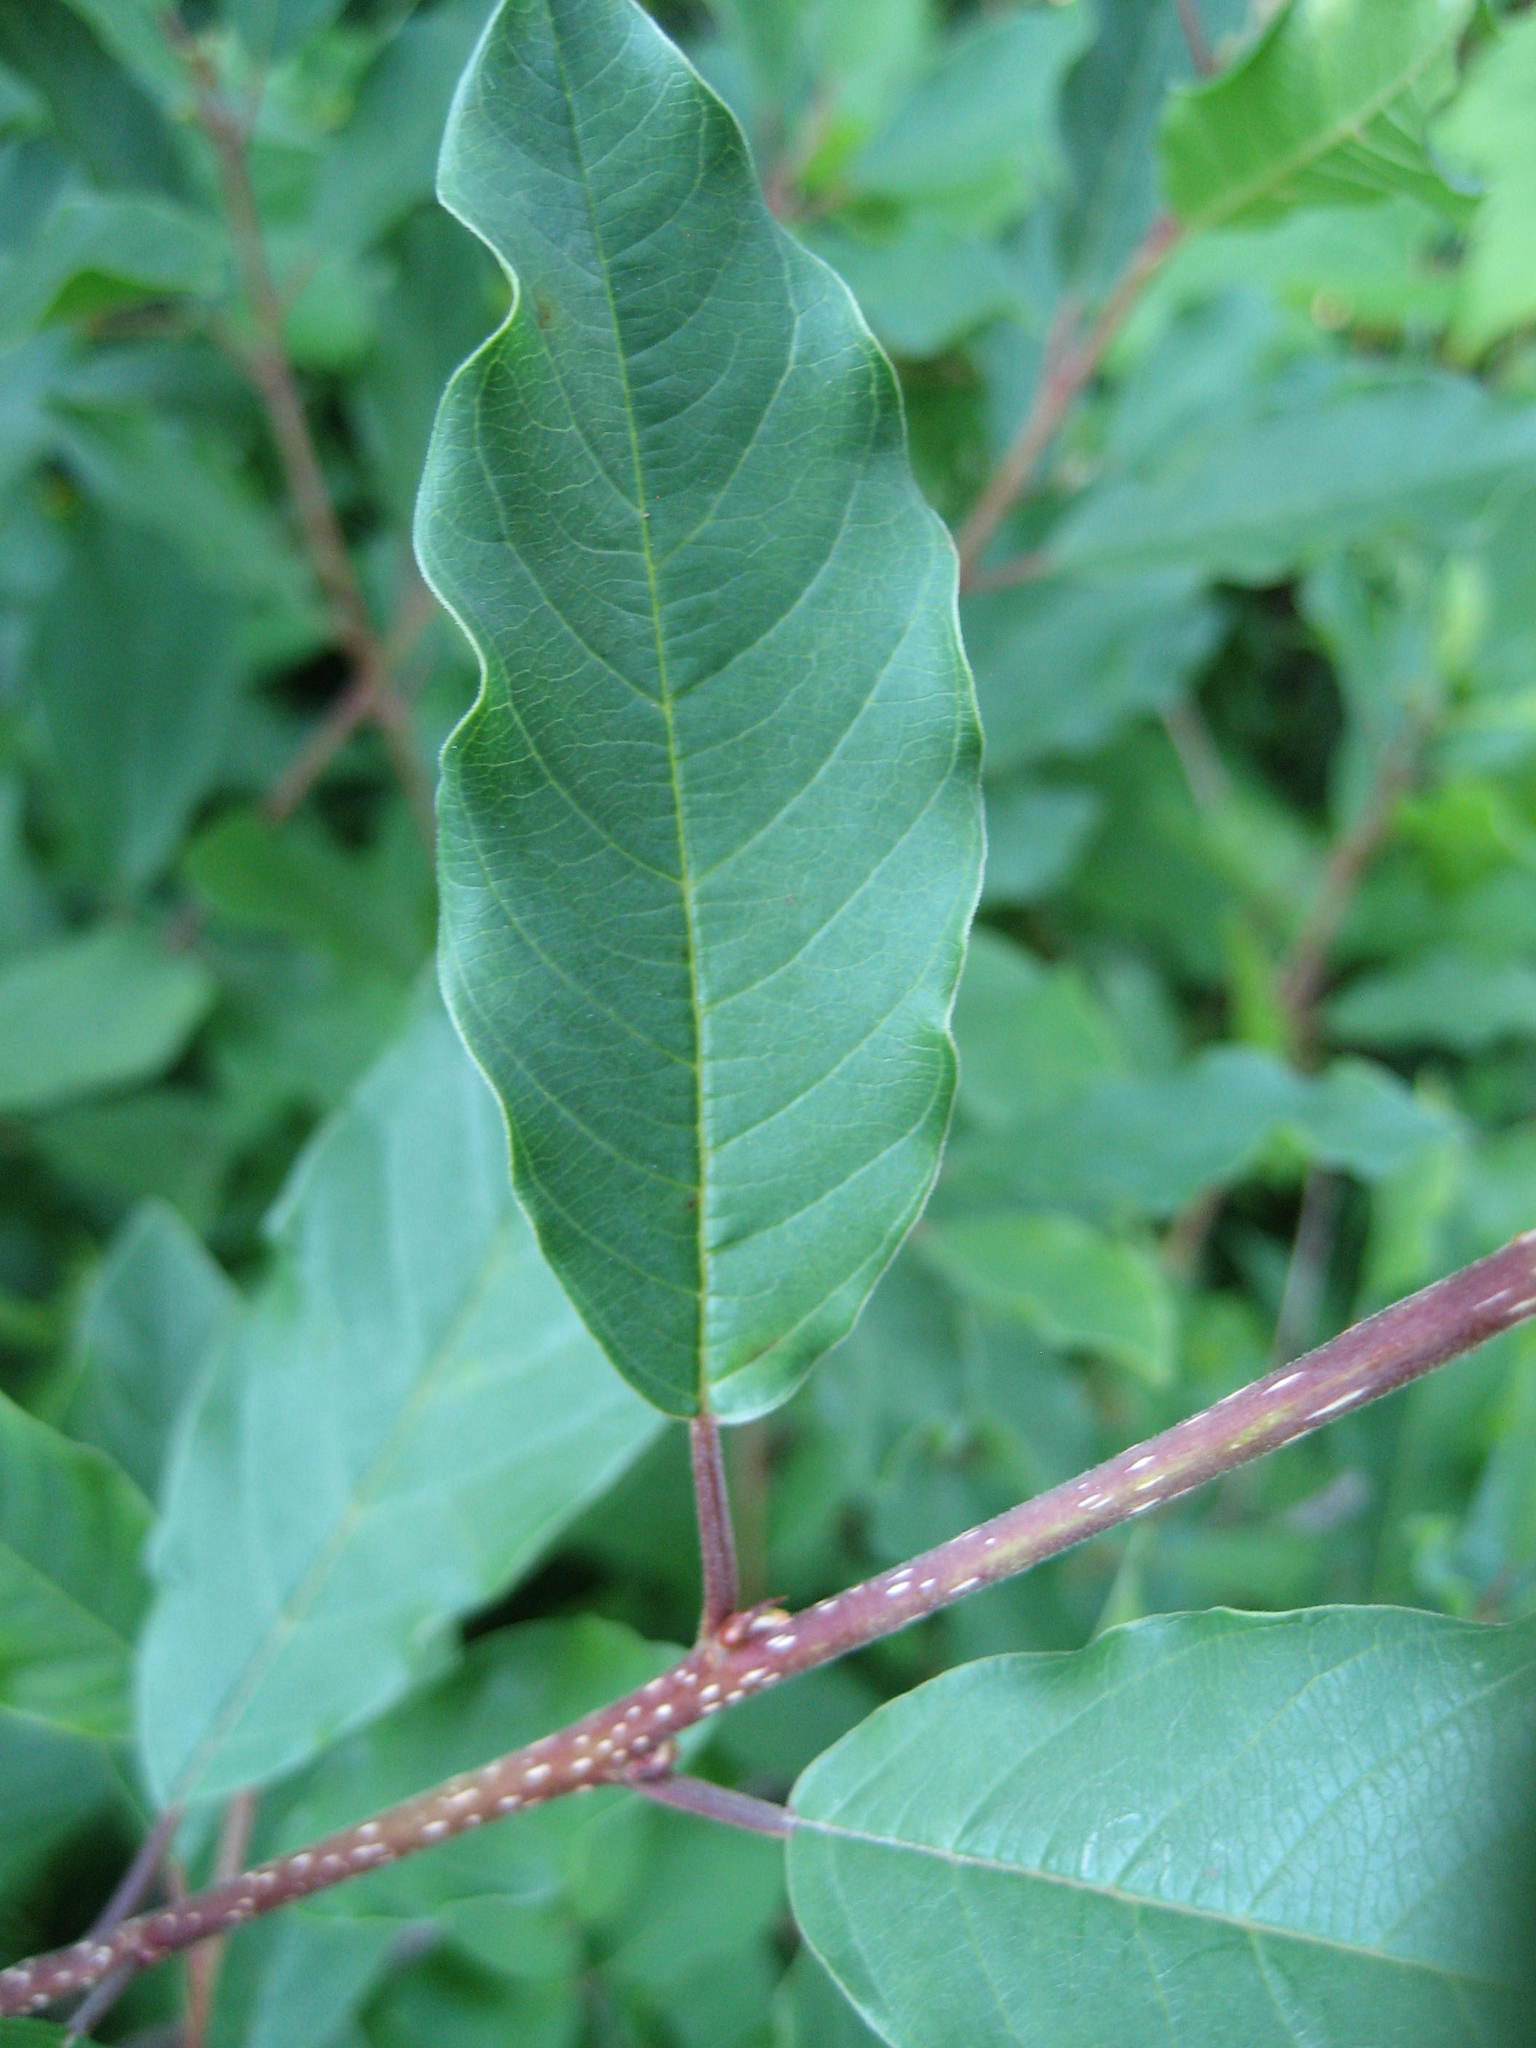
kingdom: Plantae
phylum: Tracheophyta
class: Magnoliopsida
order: Rosales
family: Rhamnaceae
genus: Frangula
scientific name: Frangula alnus
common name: Alder buckthorn
